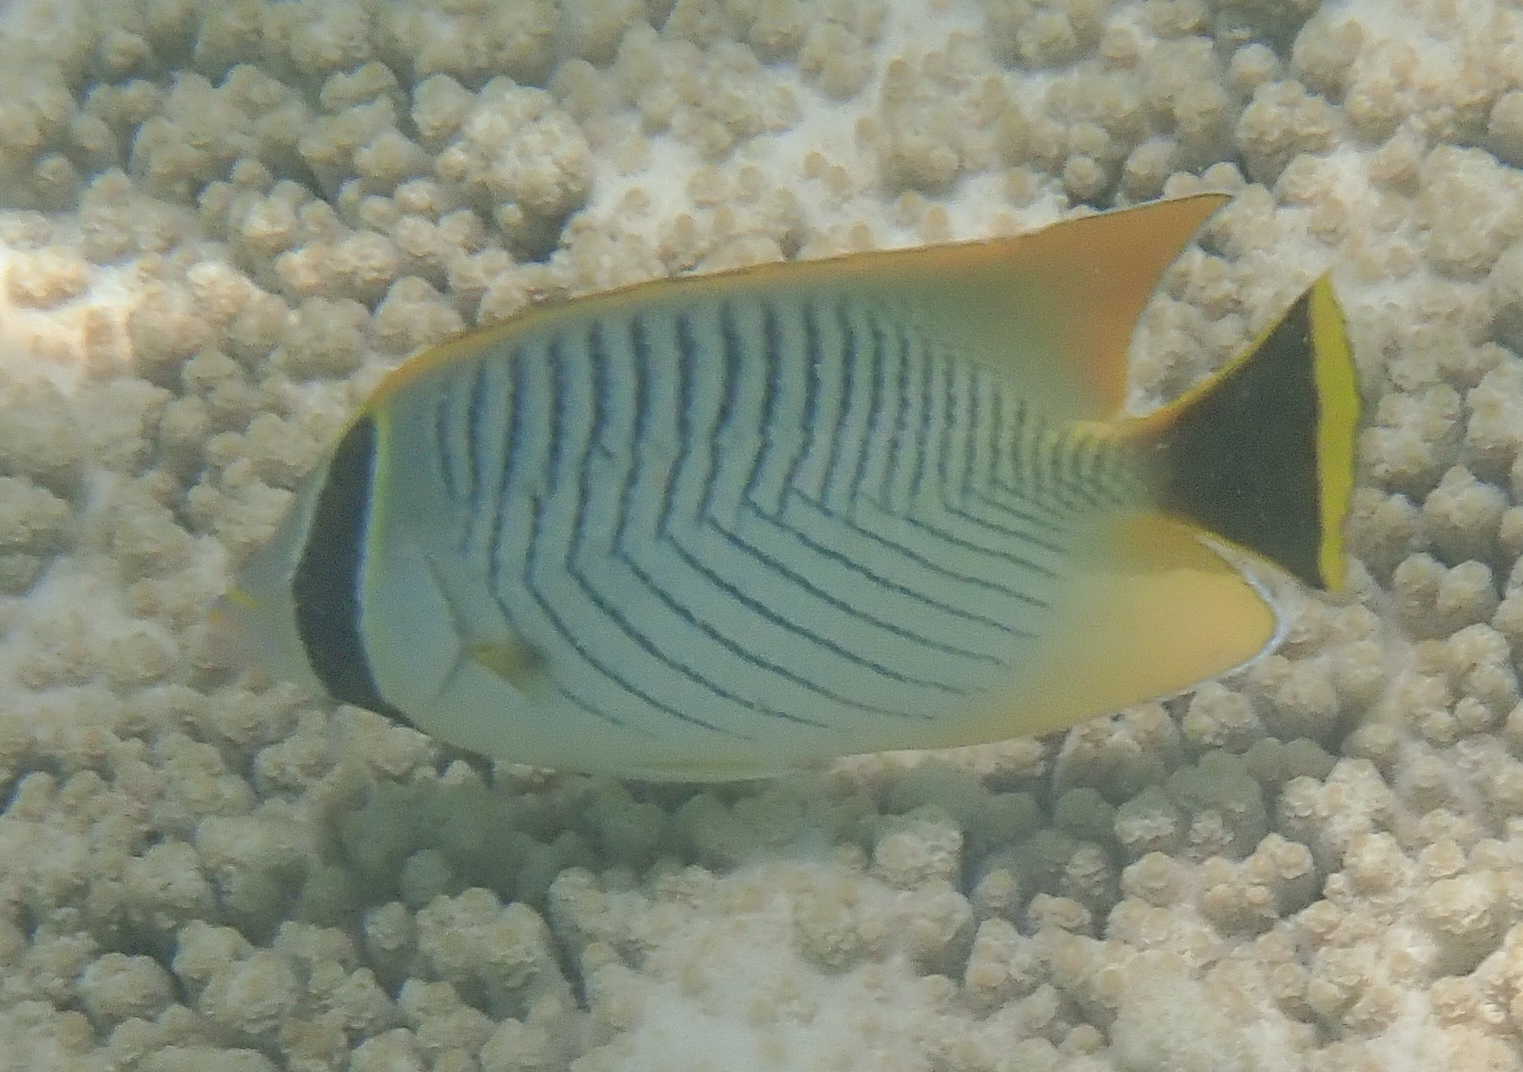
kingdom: Animalia
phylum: Chordata
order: Perciformes
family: Chaetodontidae
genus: Chaetodon
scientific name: Chaetodon trifascialis
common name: Chevroned butterflyfish
